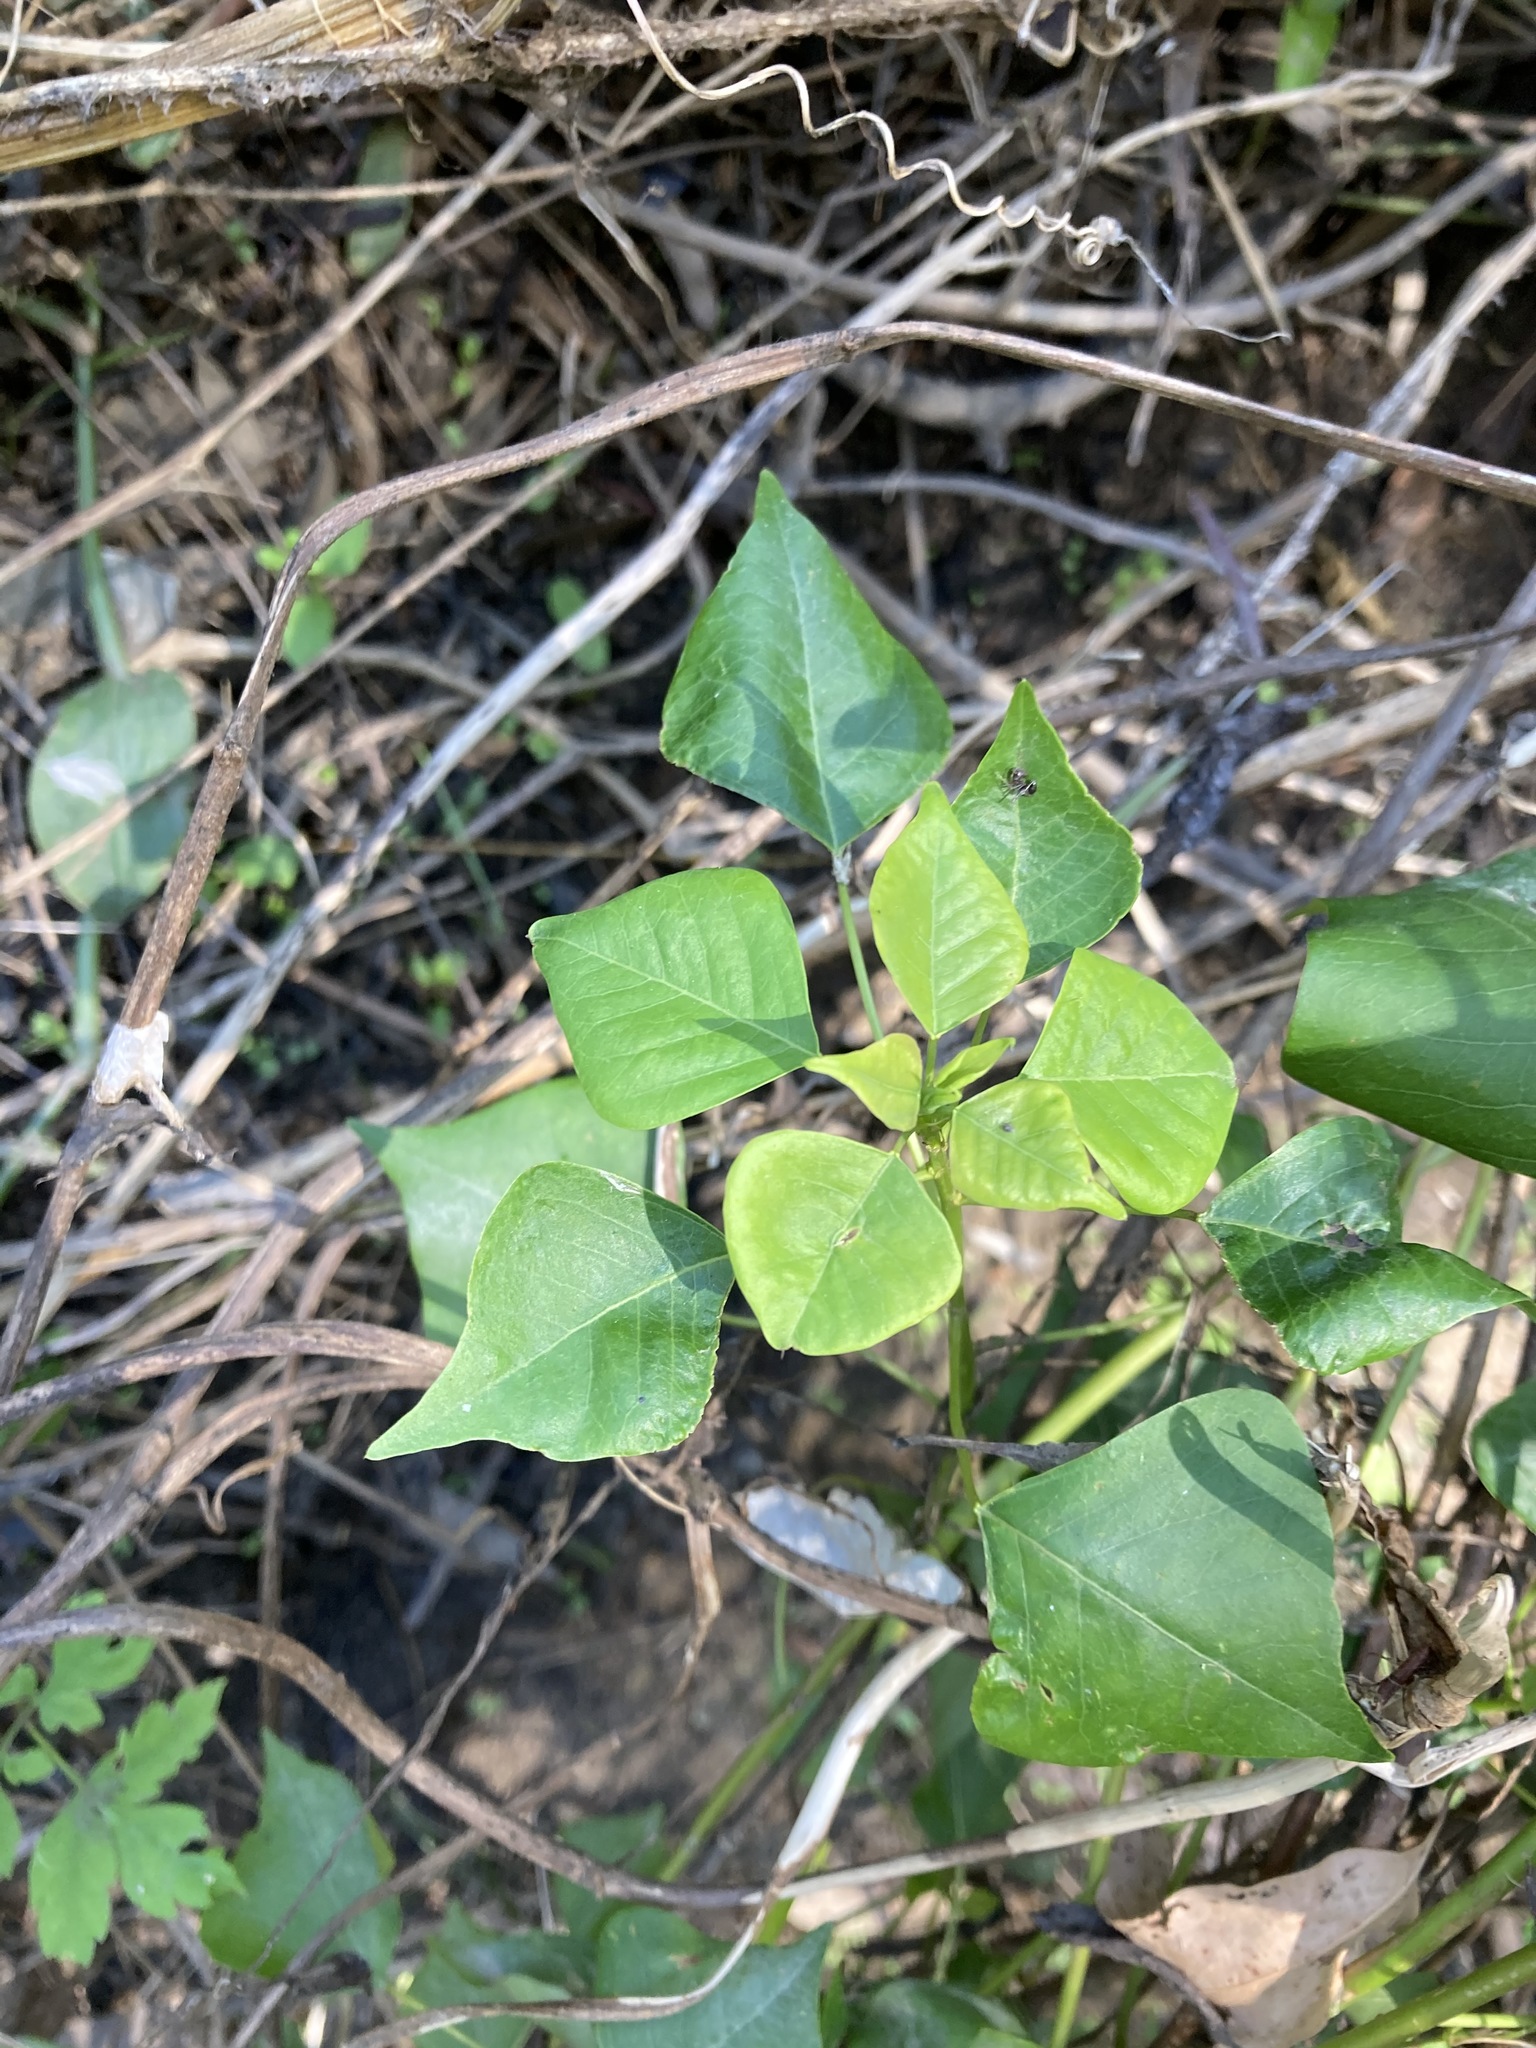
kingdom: Plantae
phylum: Tracheophyta
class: Magnoliopsida
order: Malpighiales
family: Euphorbiaceae
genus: Triadica
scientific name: Triadica sebifera
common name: Chinese tallow
